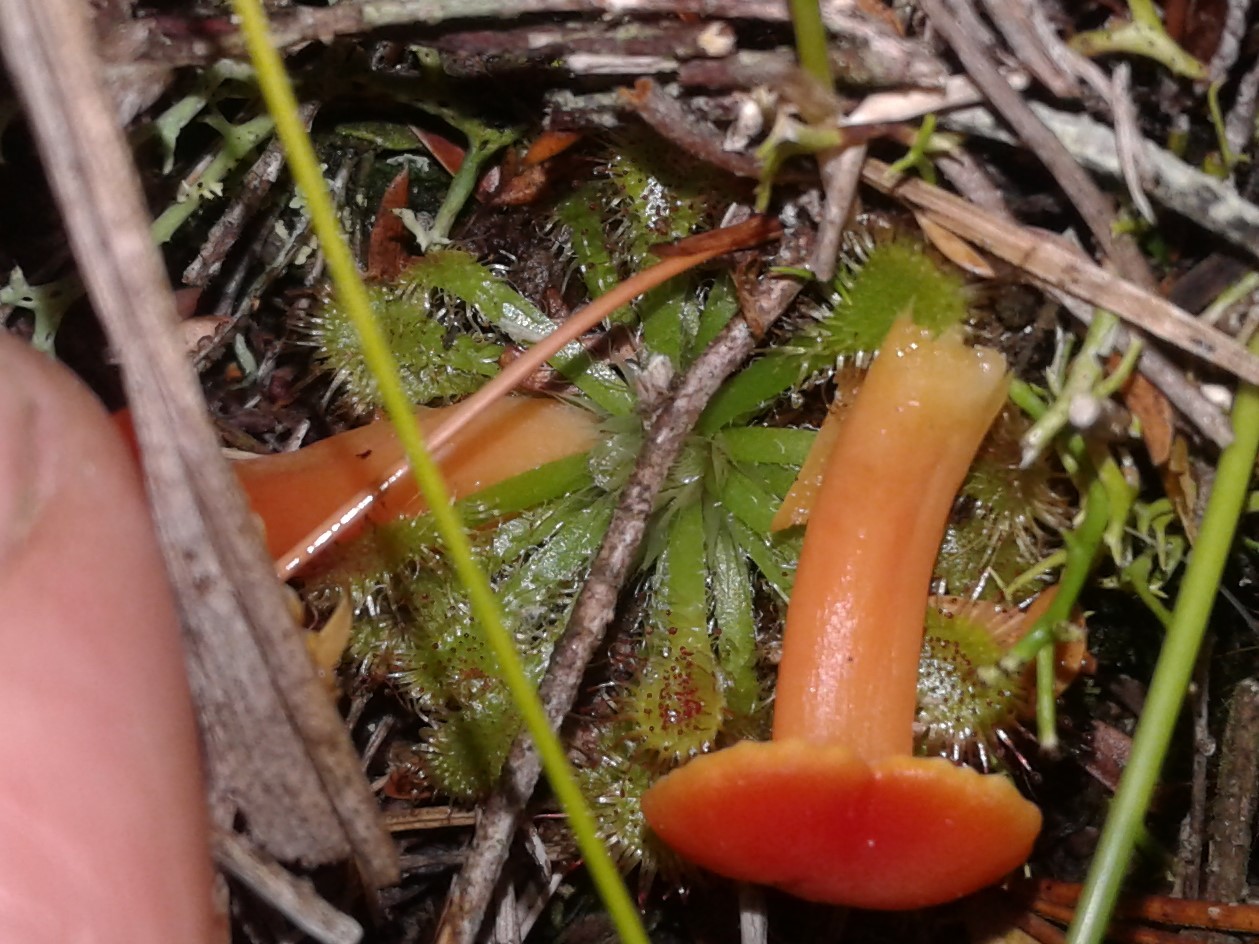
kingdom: Plantae
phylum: Tracheophyta
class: Magnoliopsida
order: Caryophyllales
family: Droseraceae
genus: Drosera
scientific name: Drosera spatulata
